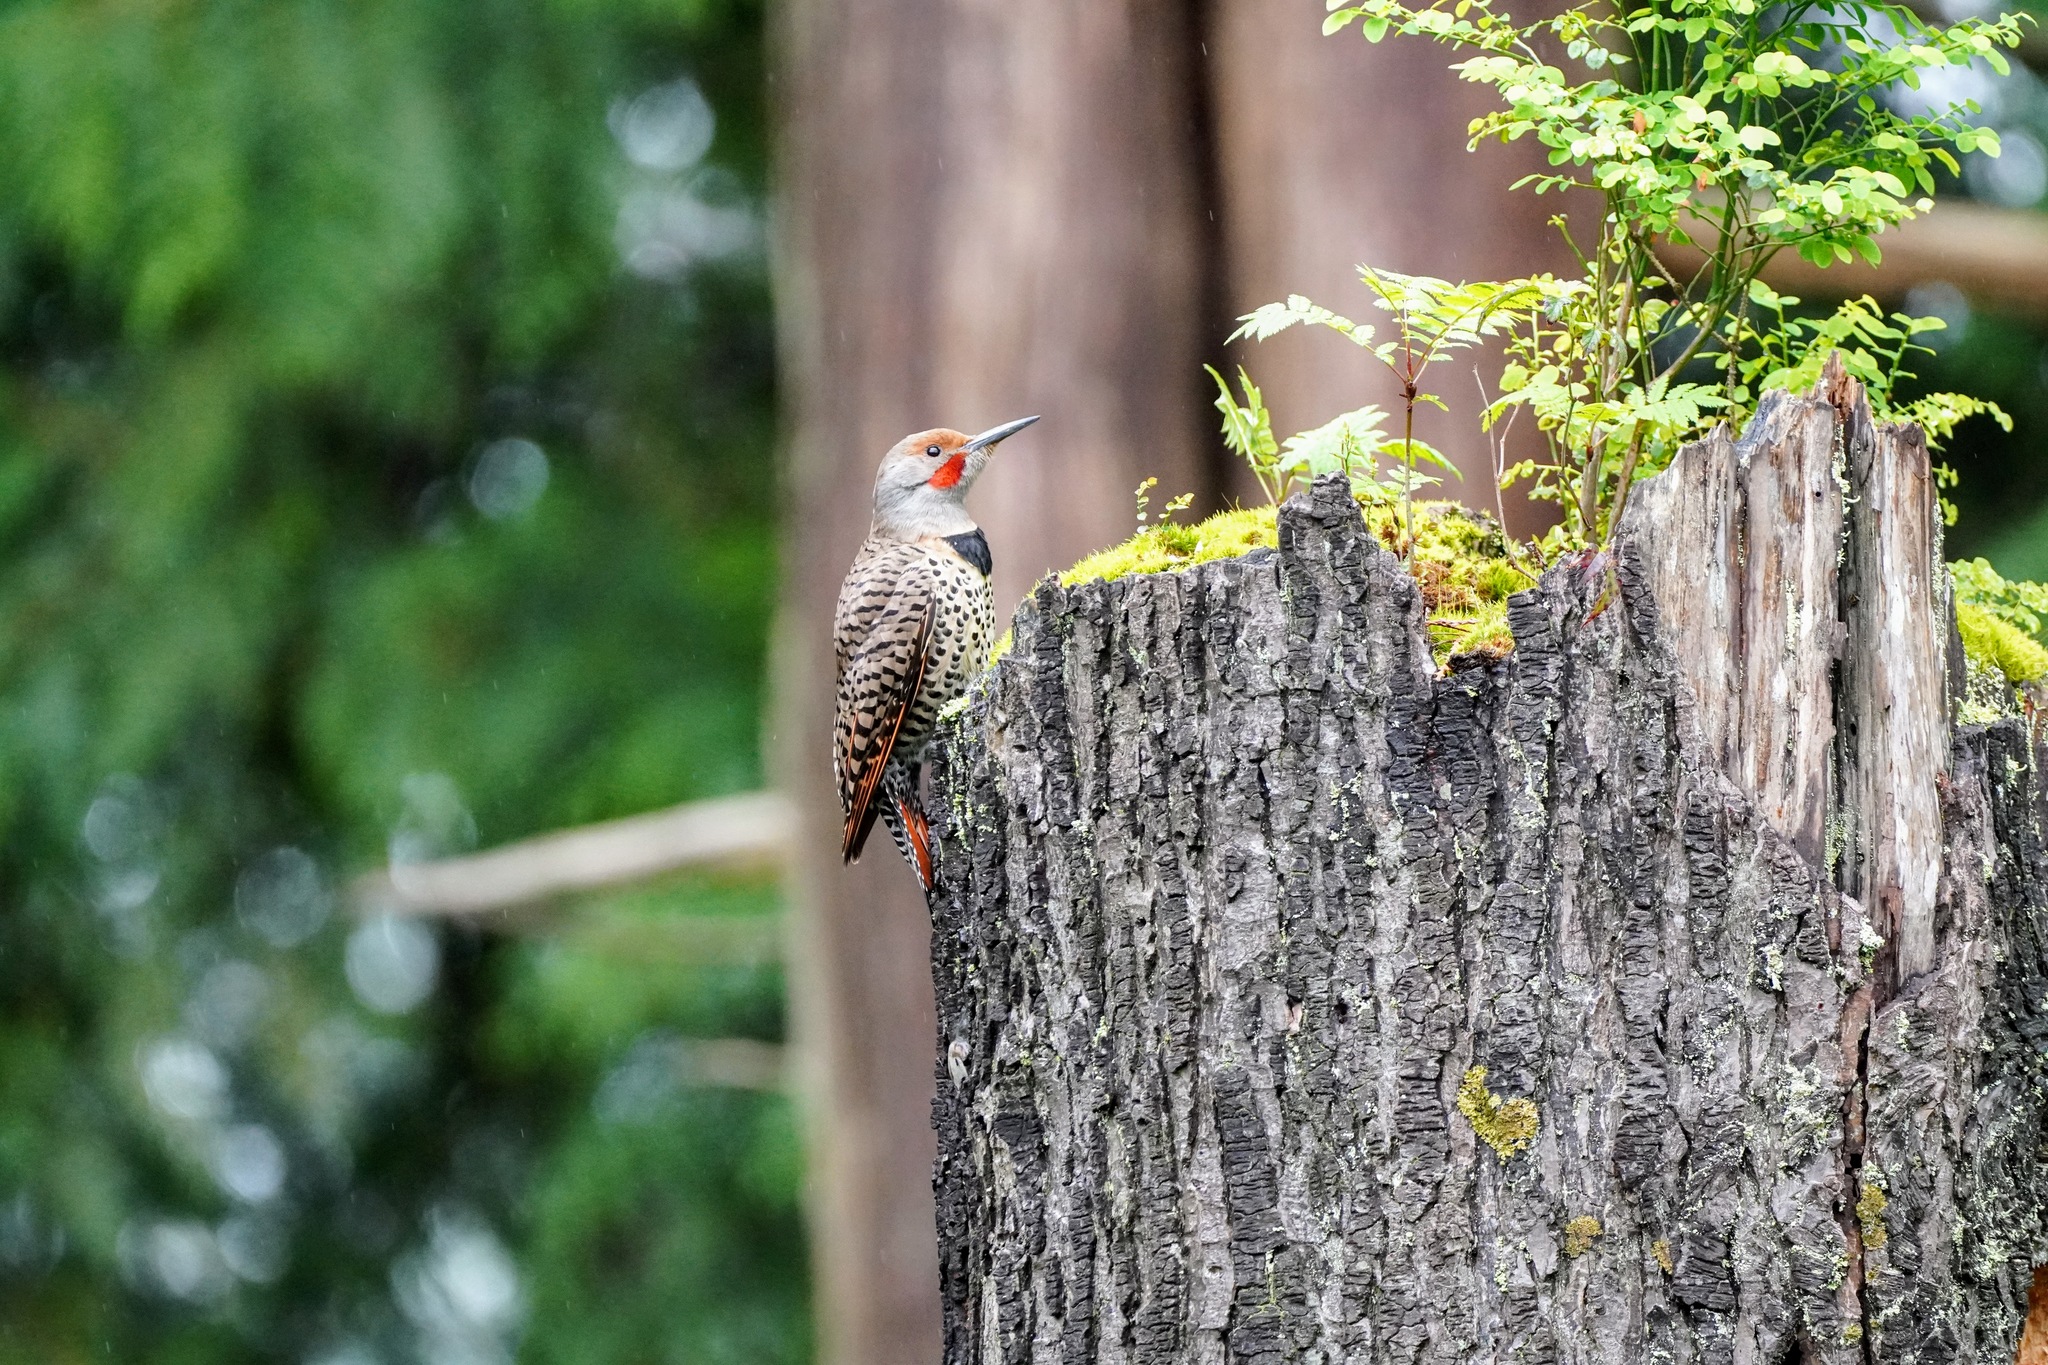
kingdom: Animalia
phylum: Chordata
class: Aves
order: Piciformes
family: Picidae
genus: Colaptes
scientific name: Colaptes auratus
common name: Northern flicker
